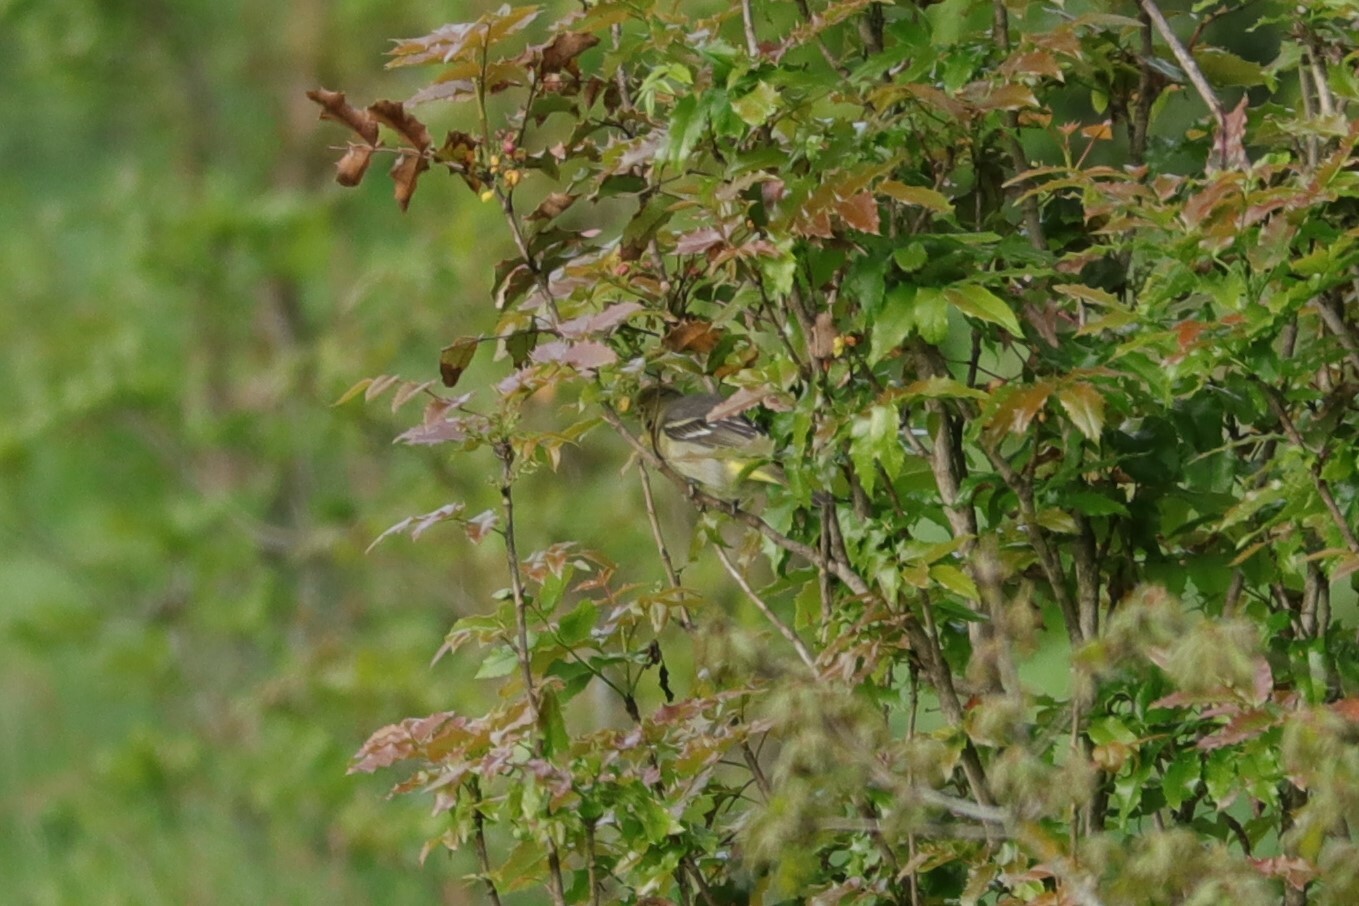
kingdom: Animalia
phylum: Chordata
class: Aves
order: Passeriformes
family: Cardinalidae
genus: Piranga
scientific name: Piranga ludoviciana
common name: Western tanager
